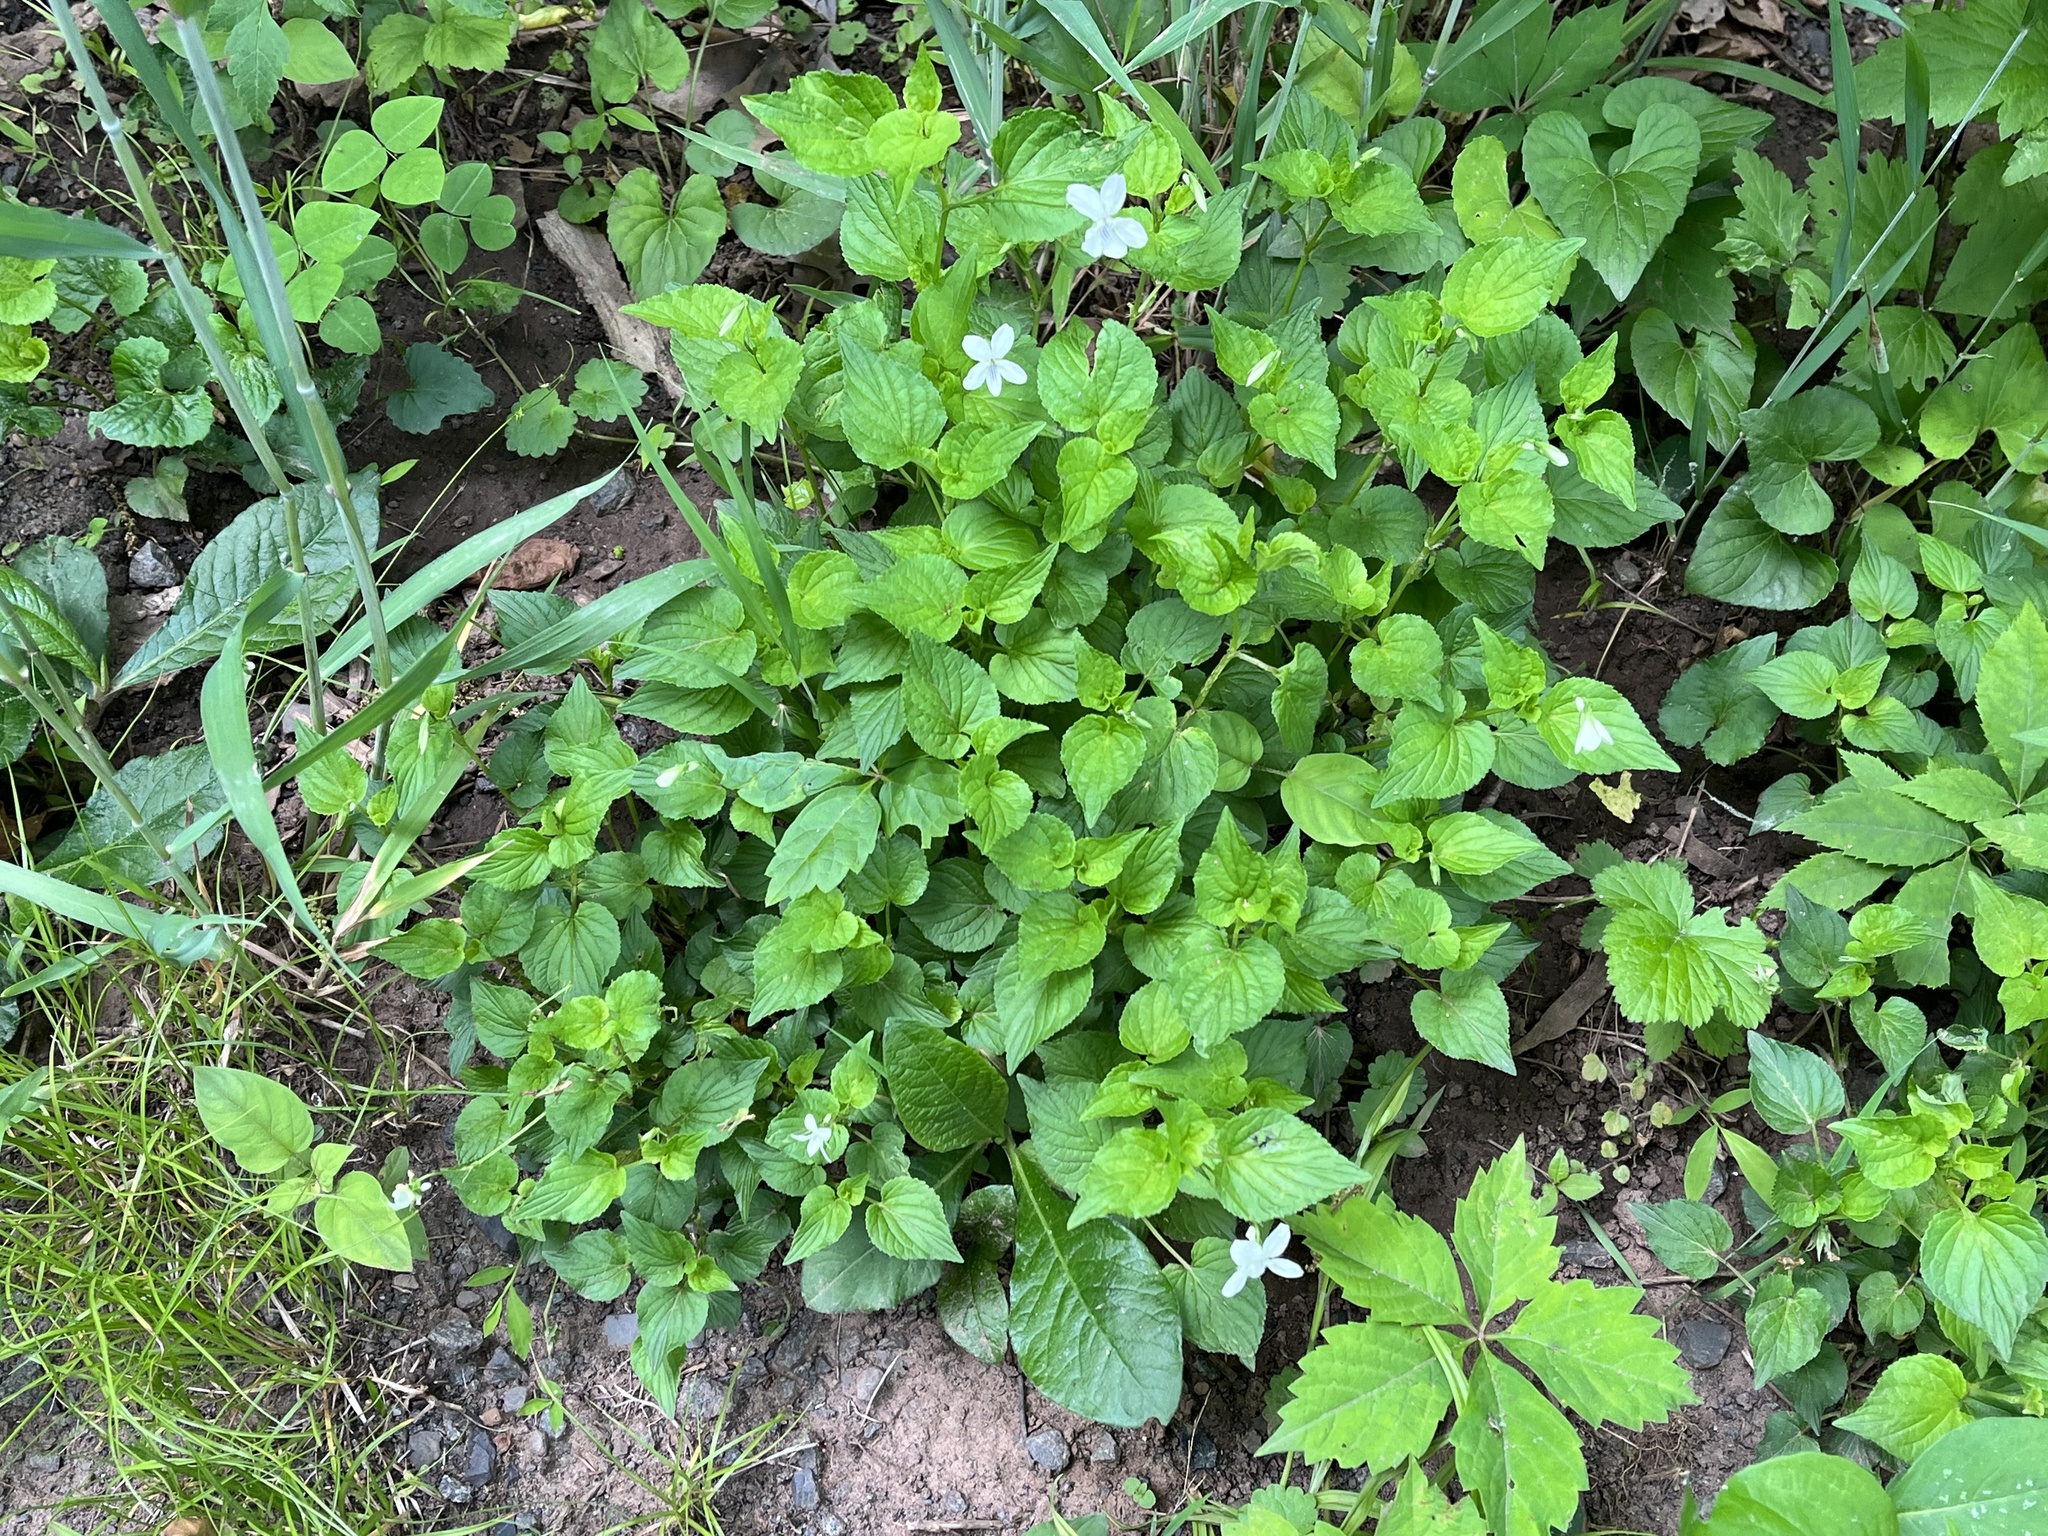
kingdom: Plantae
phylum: Tracheophyta
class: Magnoliopsida
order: Malpighiales
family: Violaceae
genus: Viola
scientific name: Viola striata
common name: Cream violet
